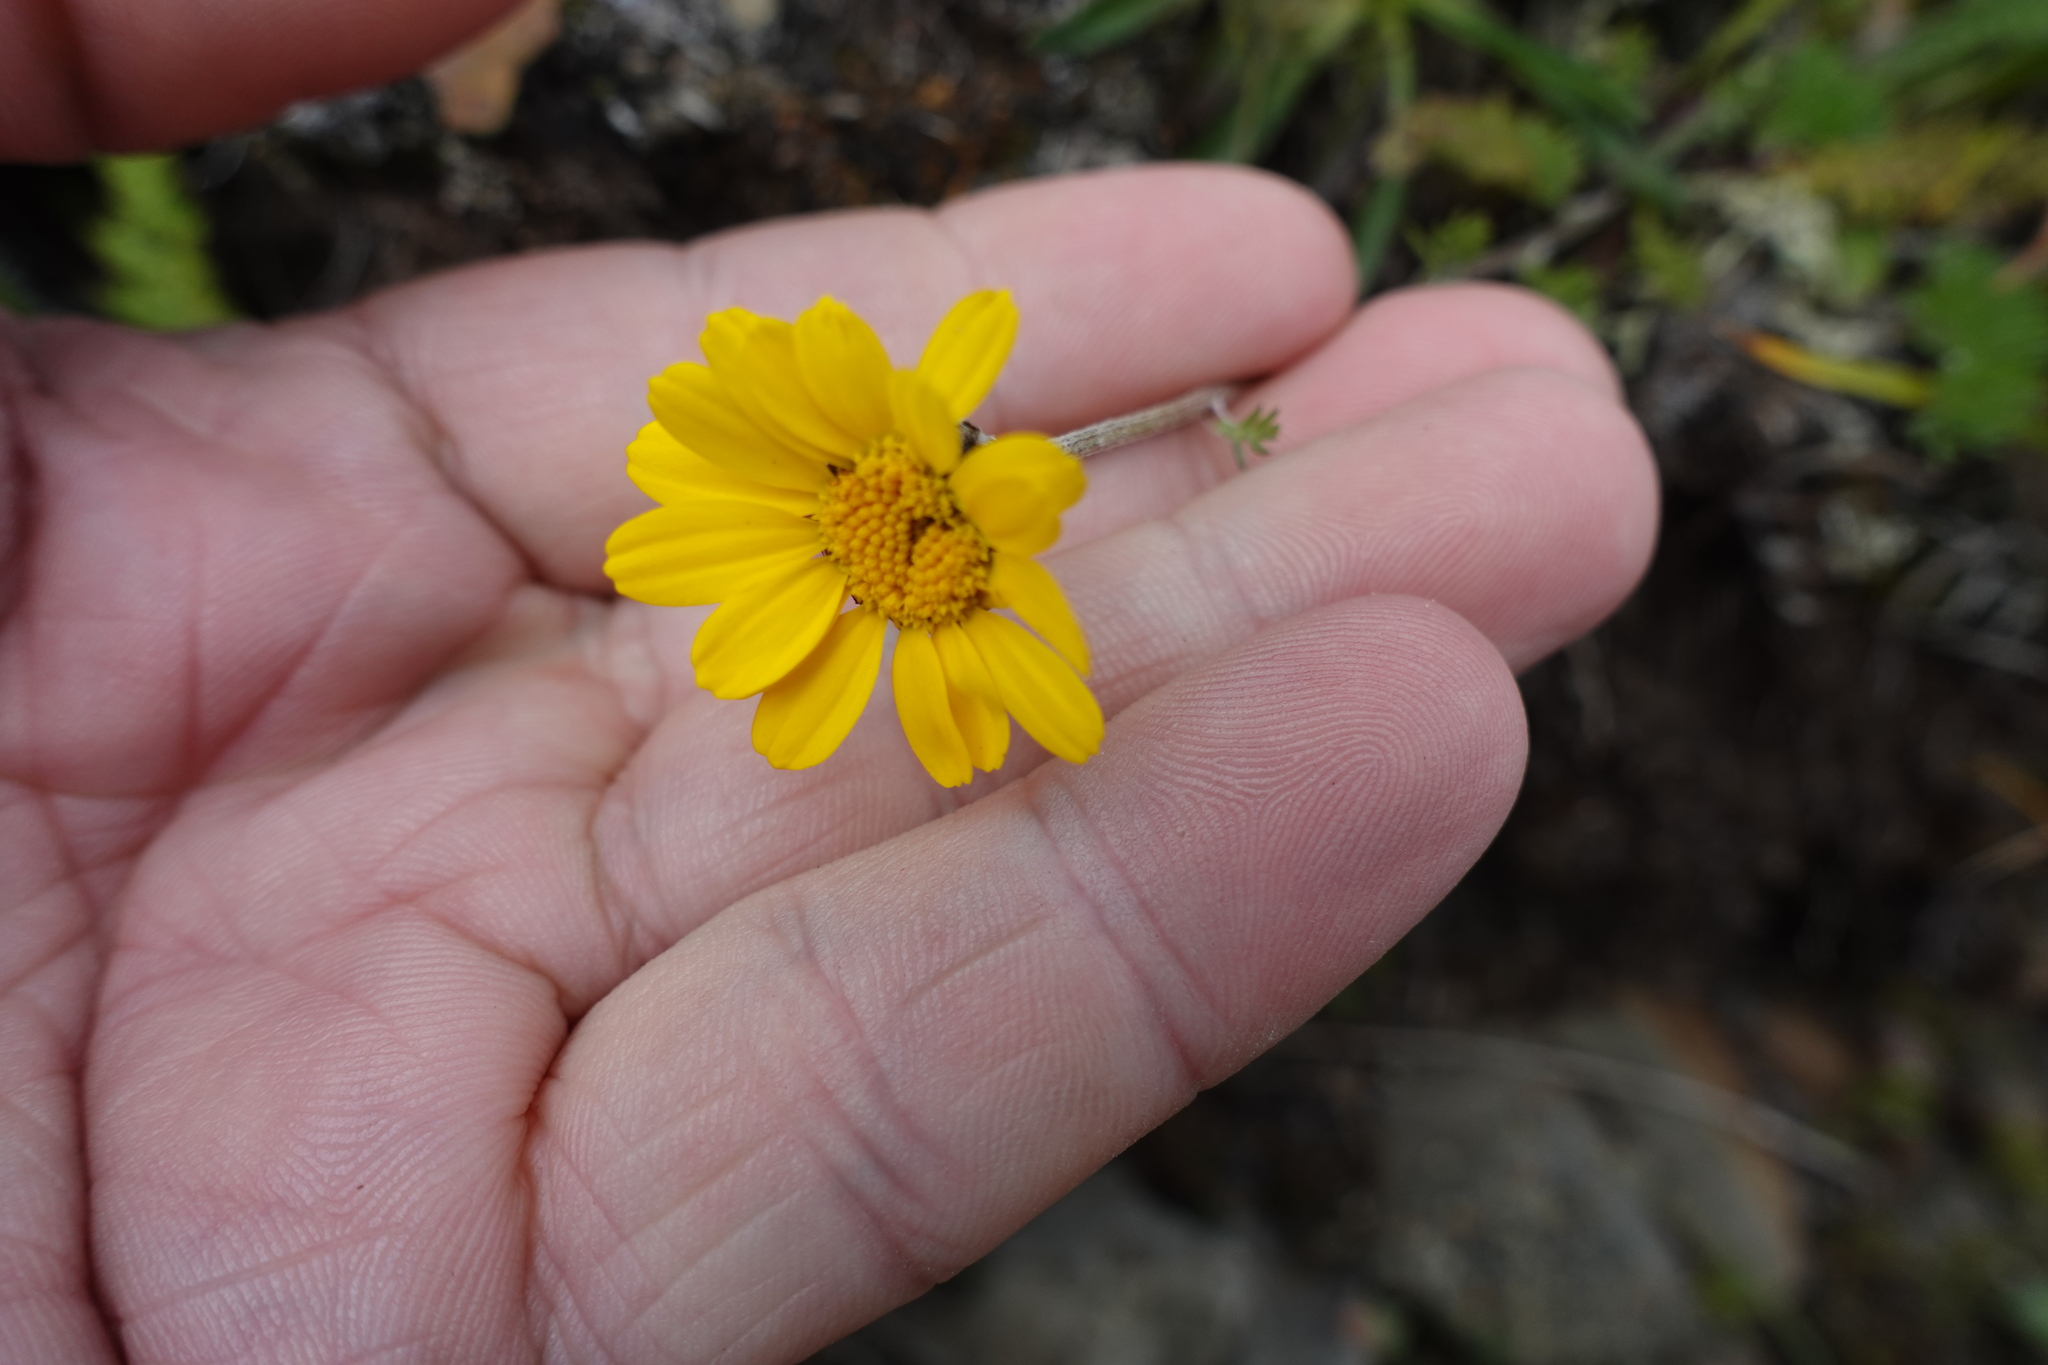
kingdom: Plantae
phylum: Tracheophyta
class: Magnoliopsida
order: Asterales
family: Asteraceae
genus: Archanthemis
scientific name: Archanthemis marschalliana
